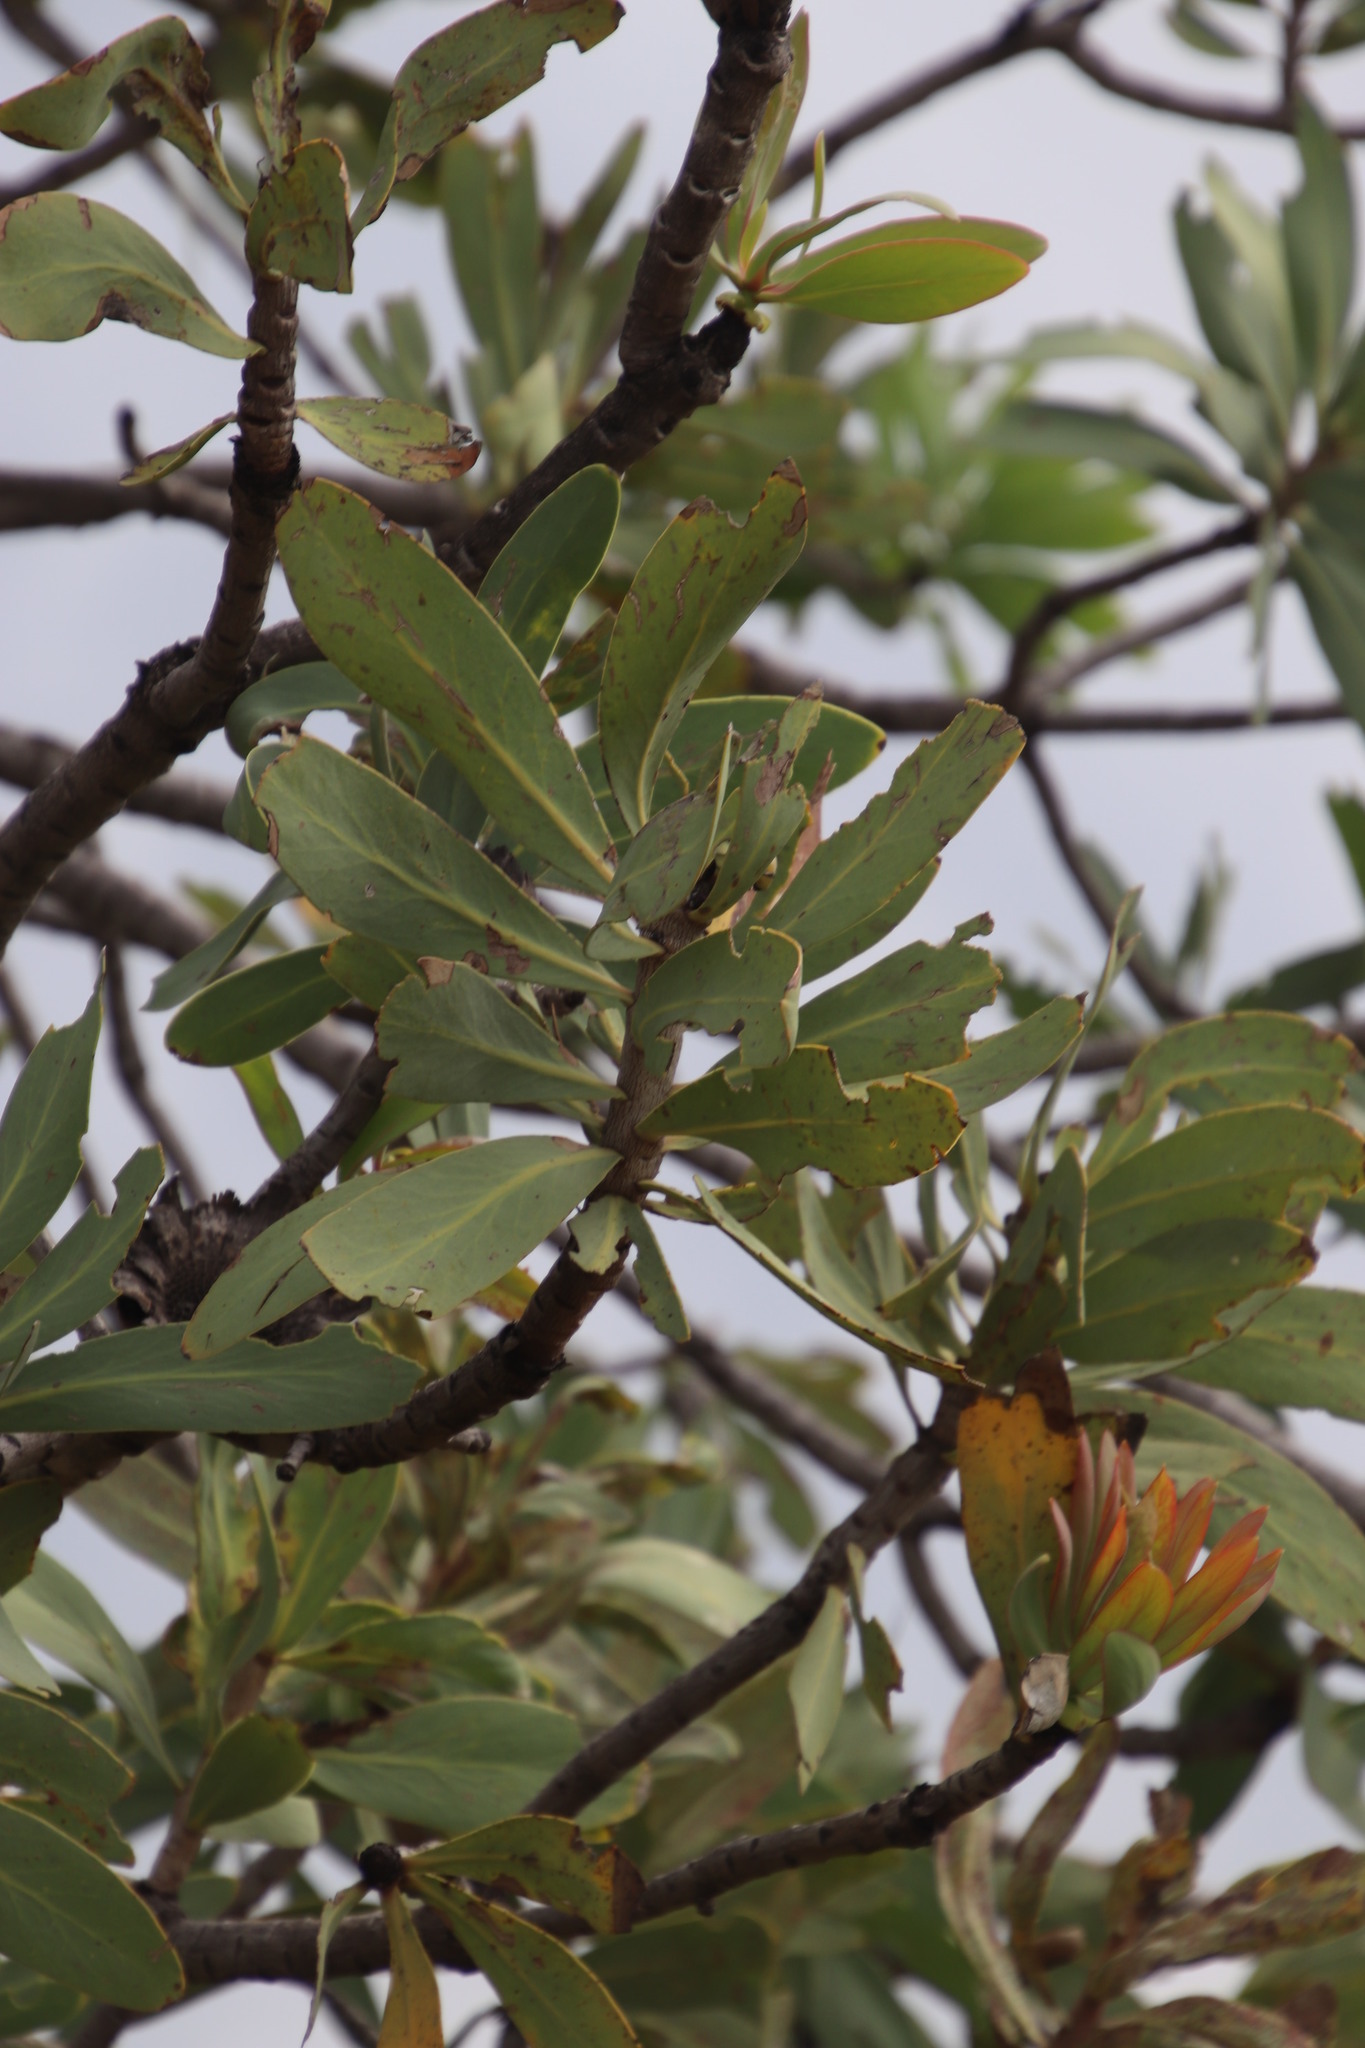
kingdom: Plantae
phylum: Tracheophyta
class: Magnoliopsida
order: Proteales
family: Proteaceae
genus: Protea
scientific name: Protea caffra
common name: Common sugarbush
